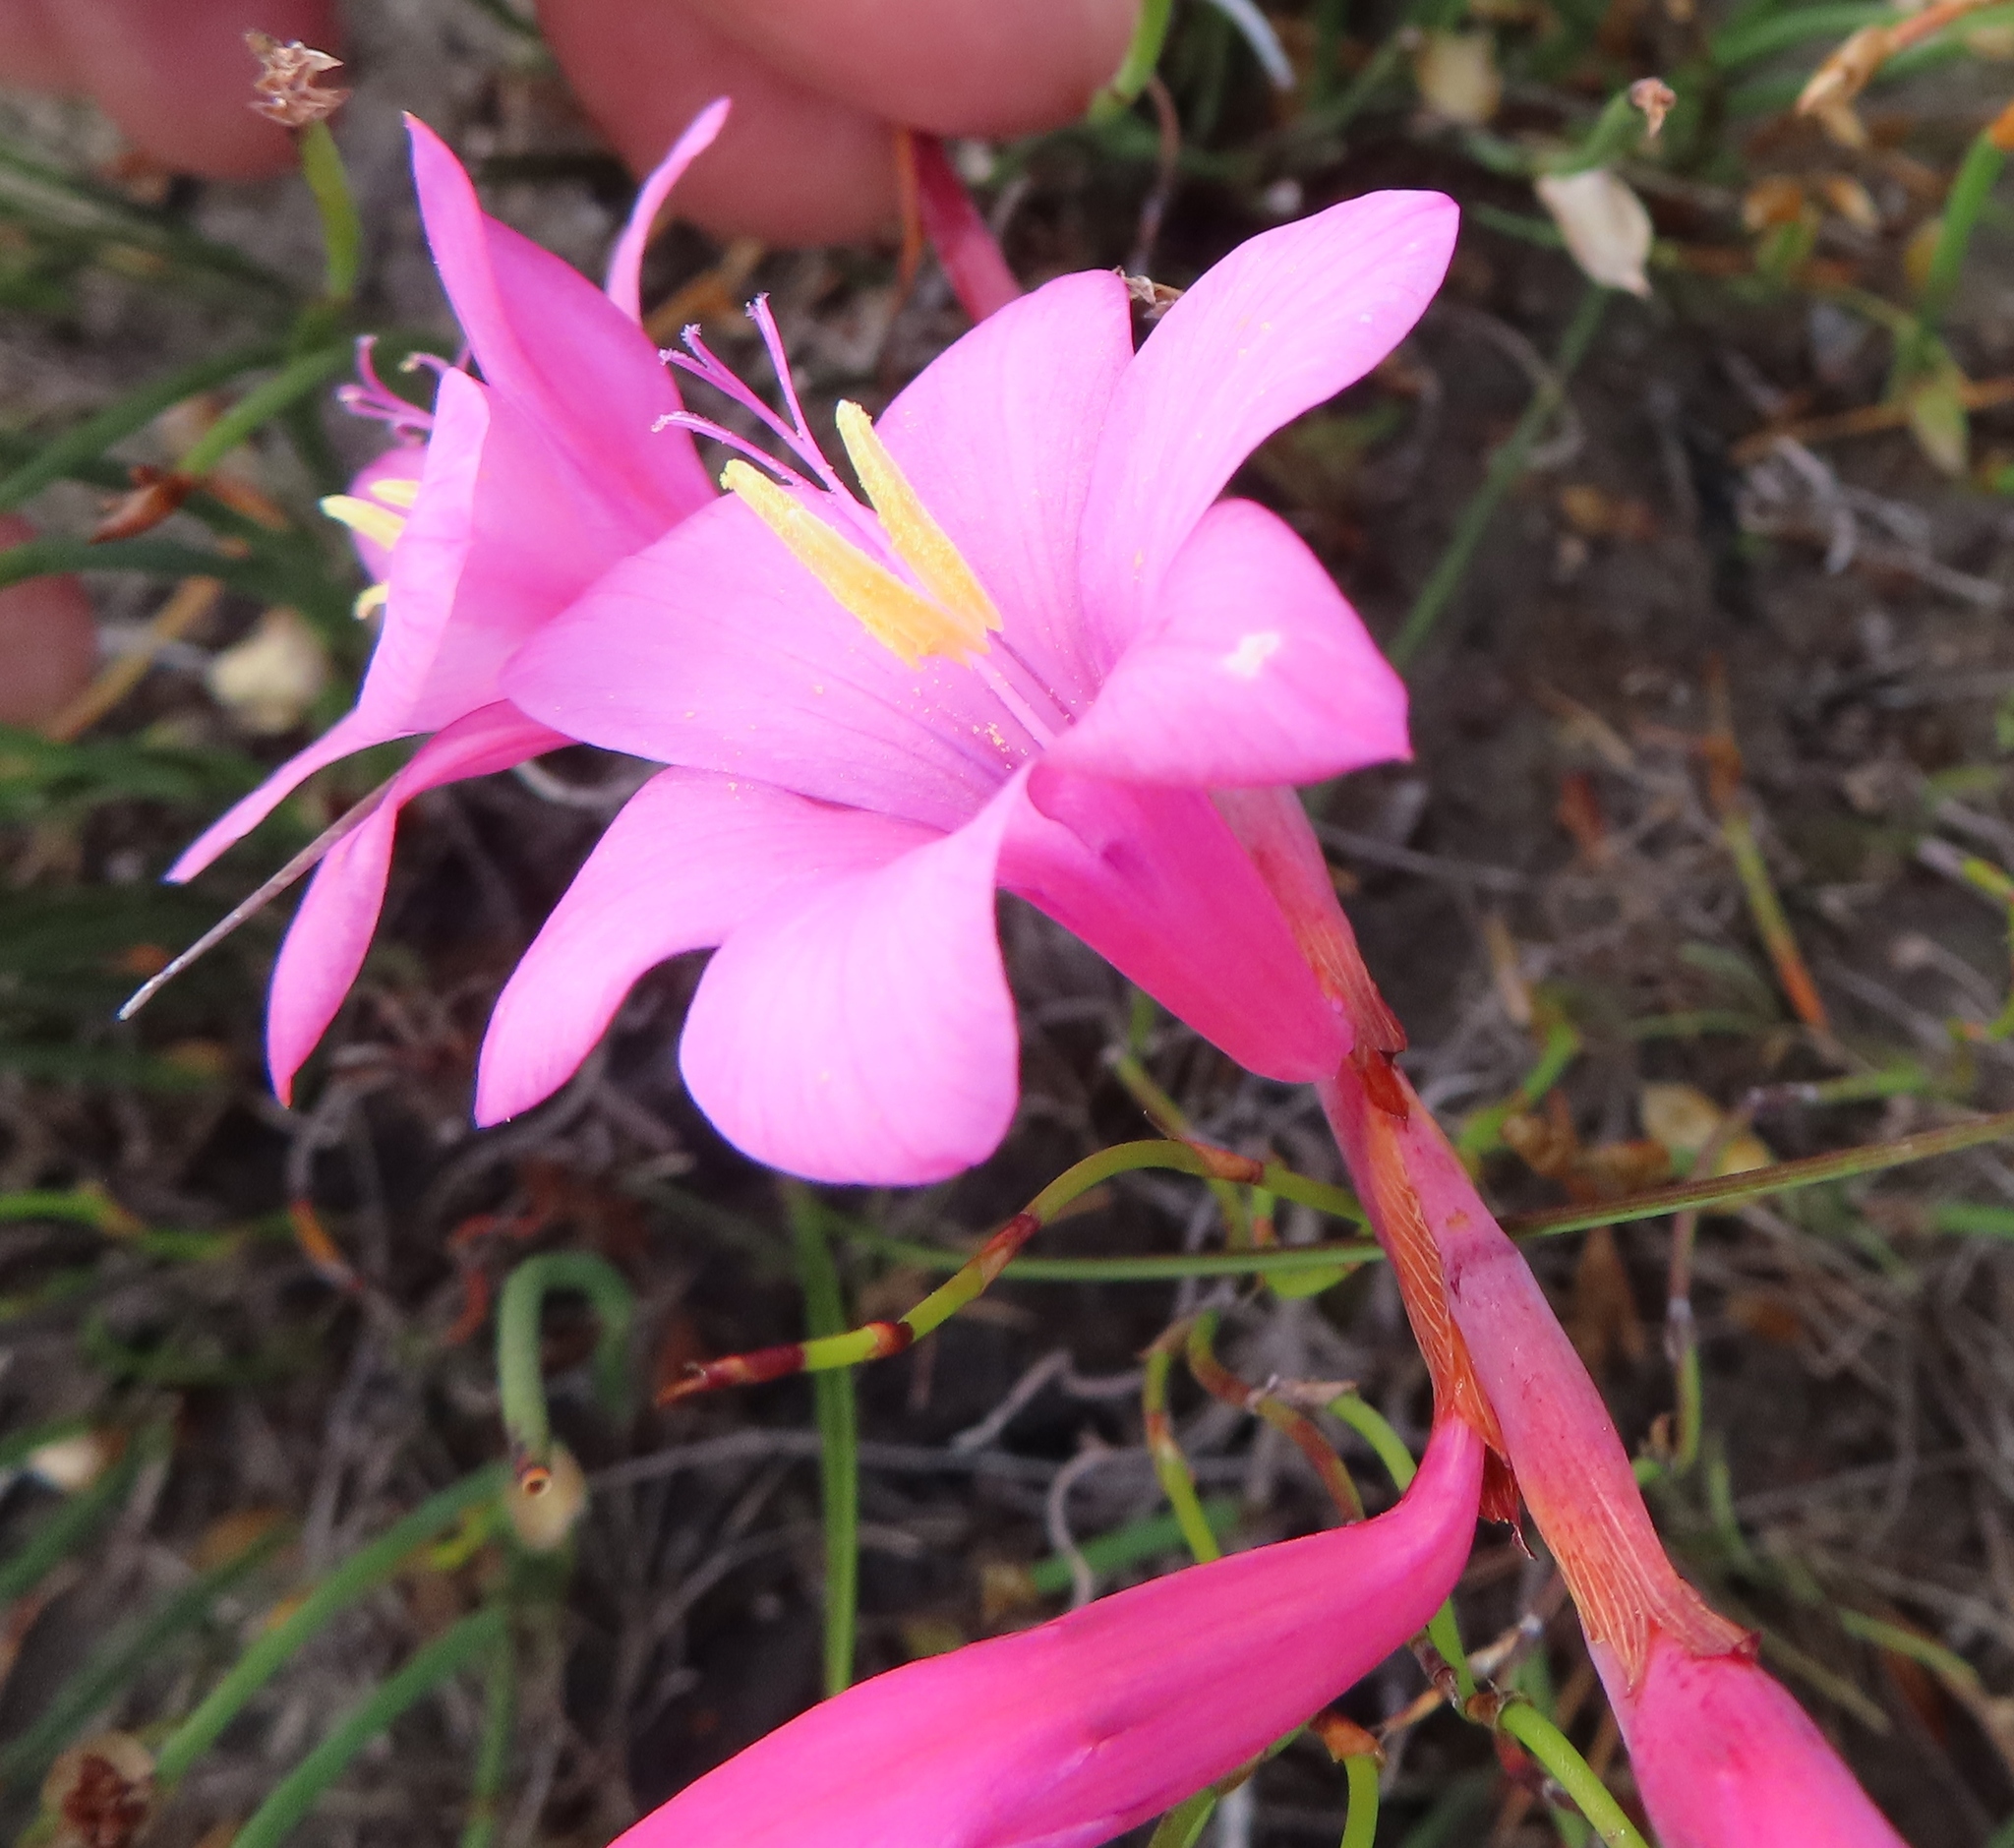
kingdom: Plantae
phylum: Tracheophyta
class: Liliopsida
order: Asparagales
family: Iridaceae
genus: Watsonia
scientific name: Watsonia laccata
